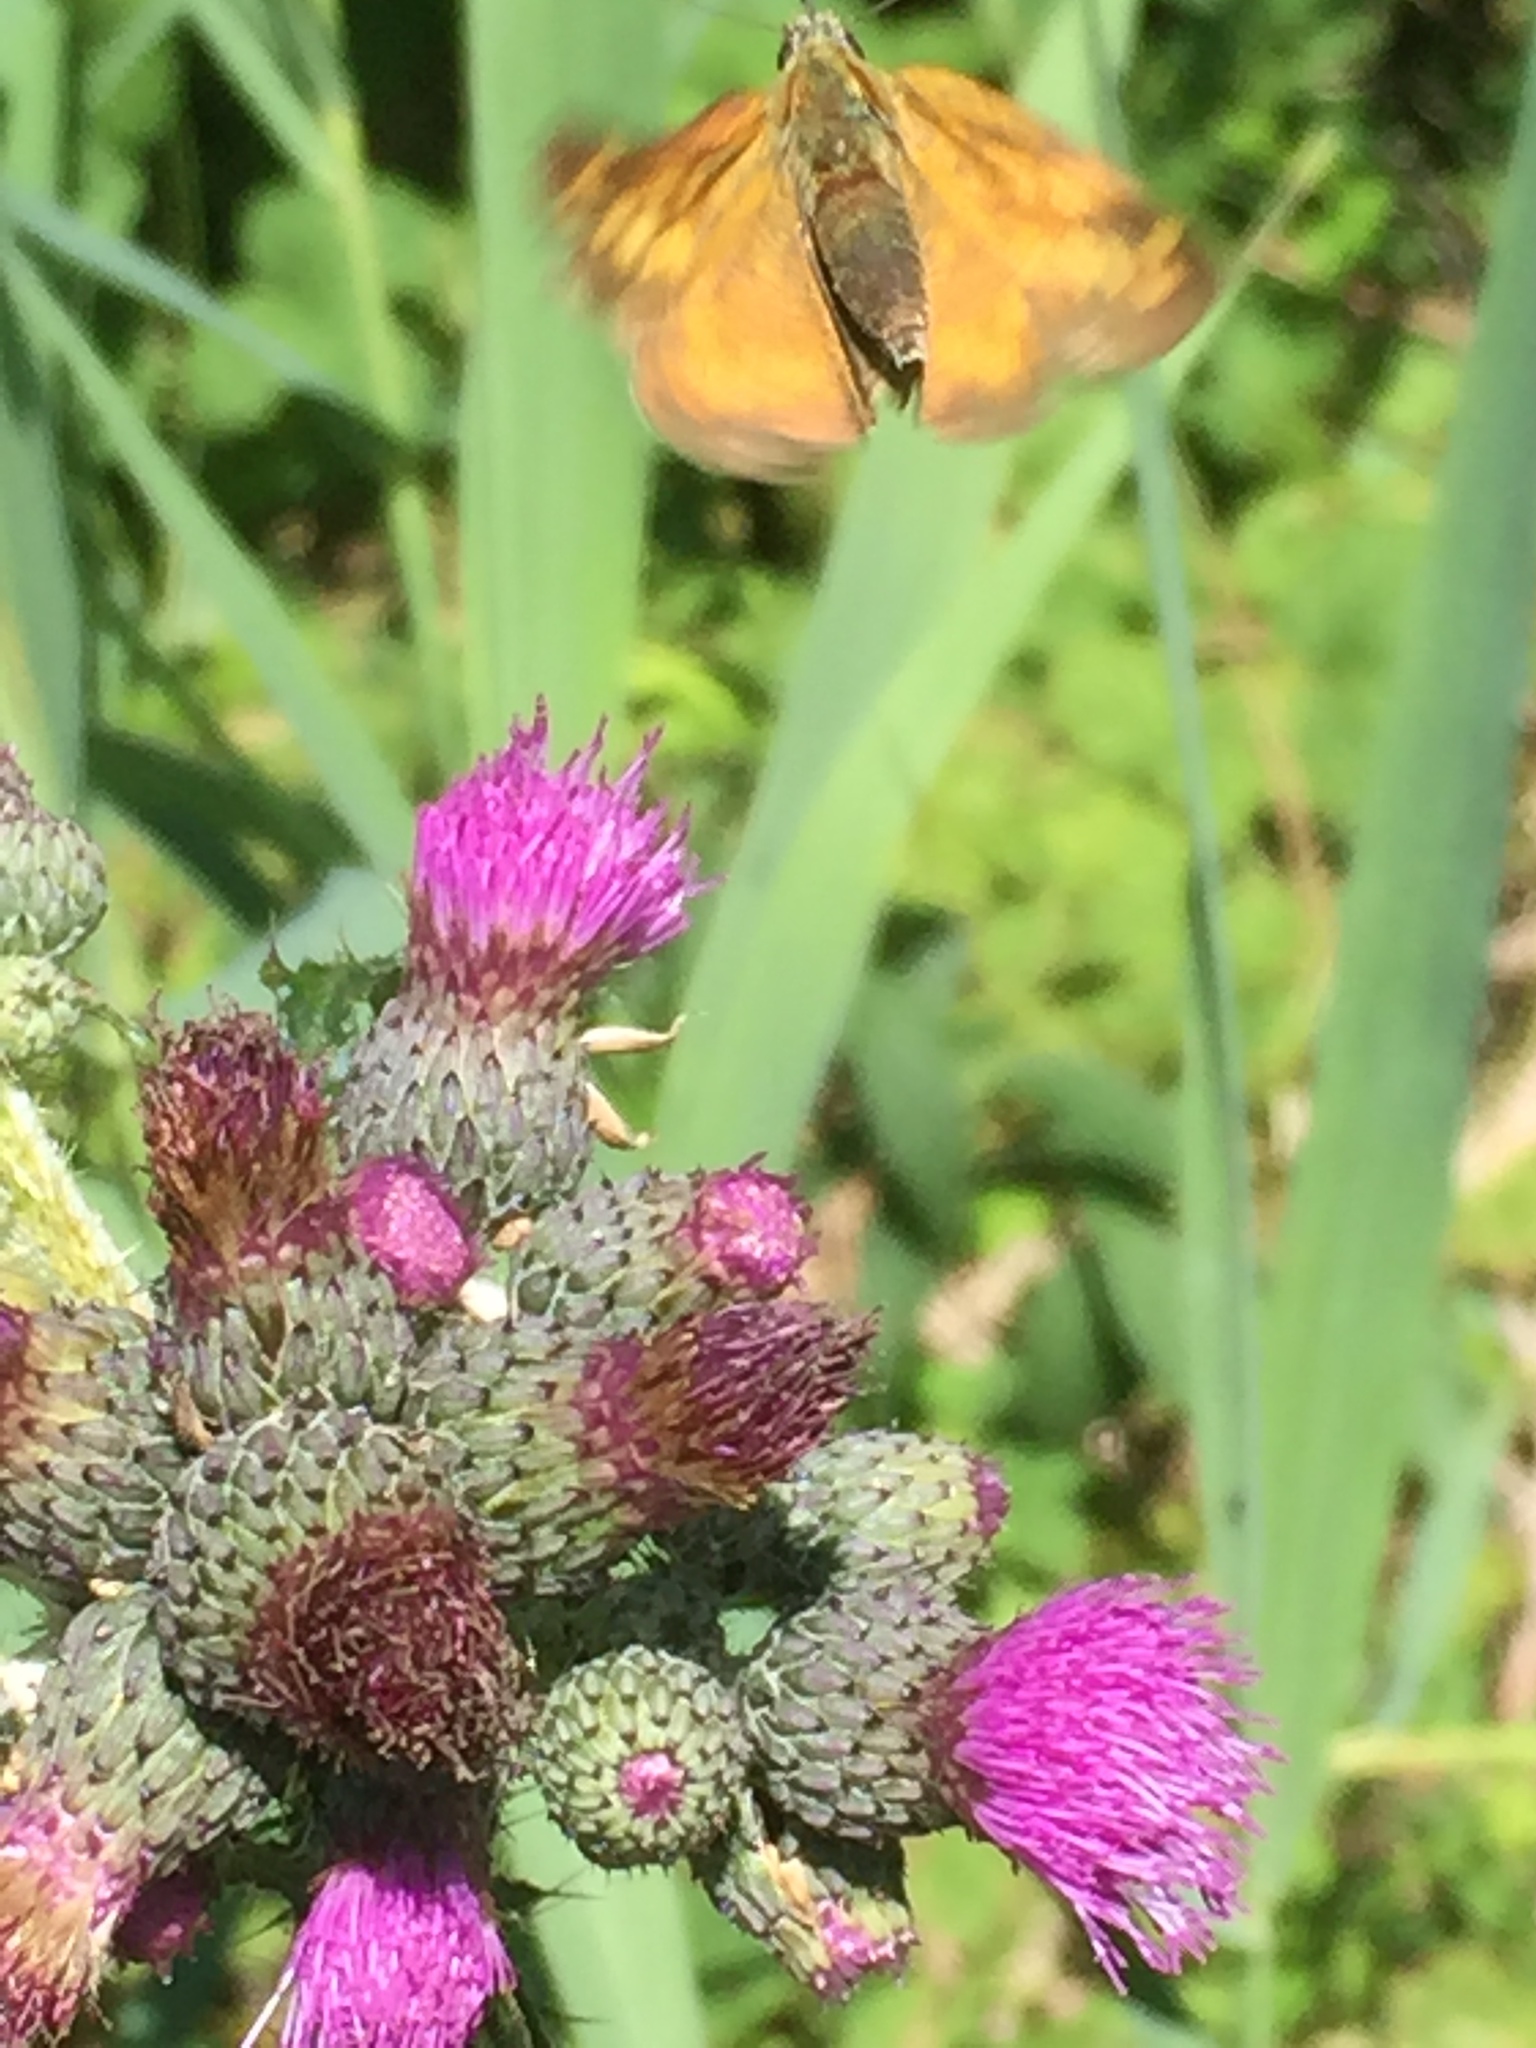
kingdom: Animalia
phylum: Arthropoda
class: Insecta
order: Lepidoptera
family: Hesperiidae
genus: Ochlodes
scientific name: Ochlodes venata
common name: Large skipper
